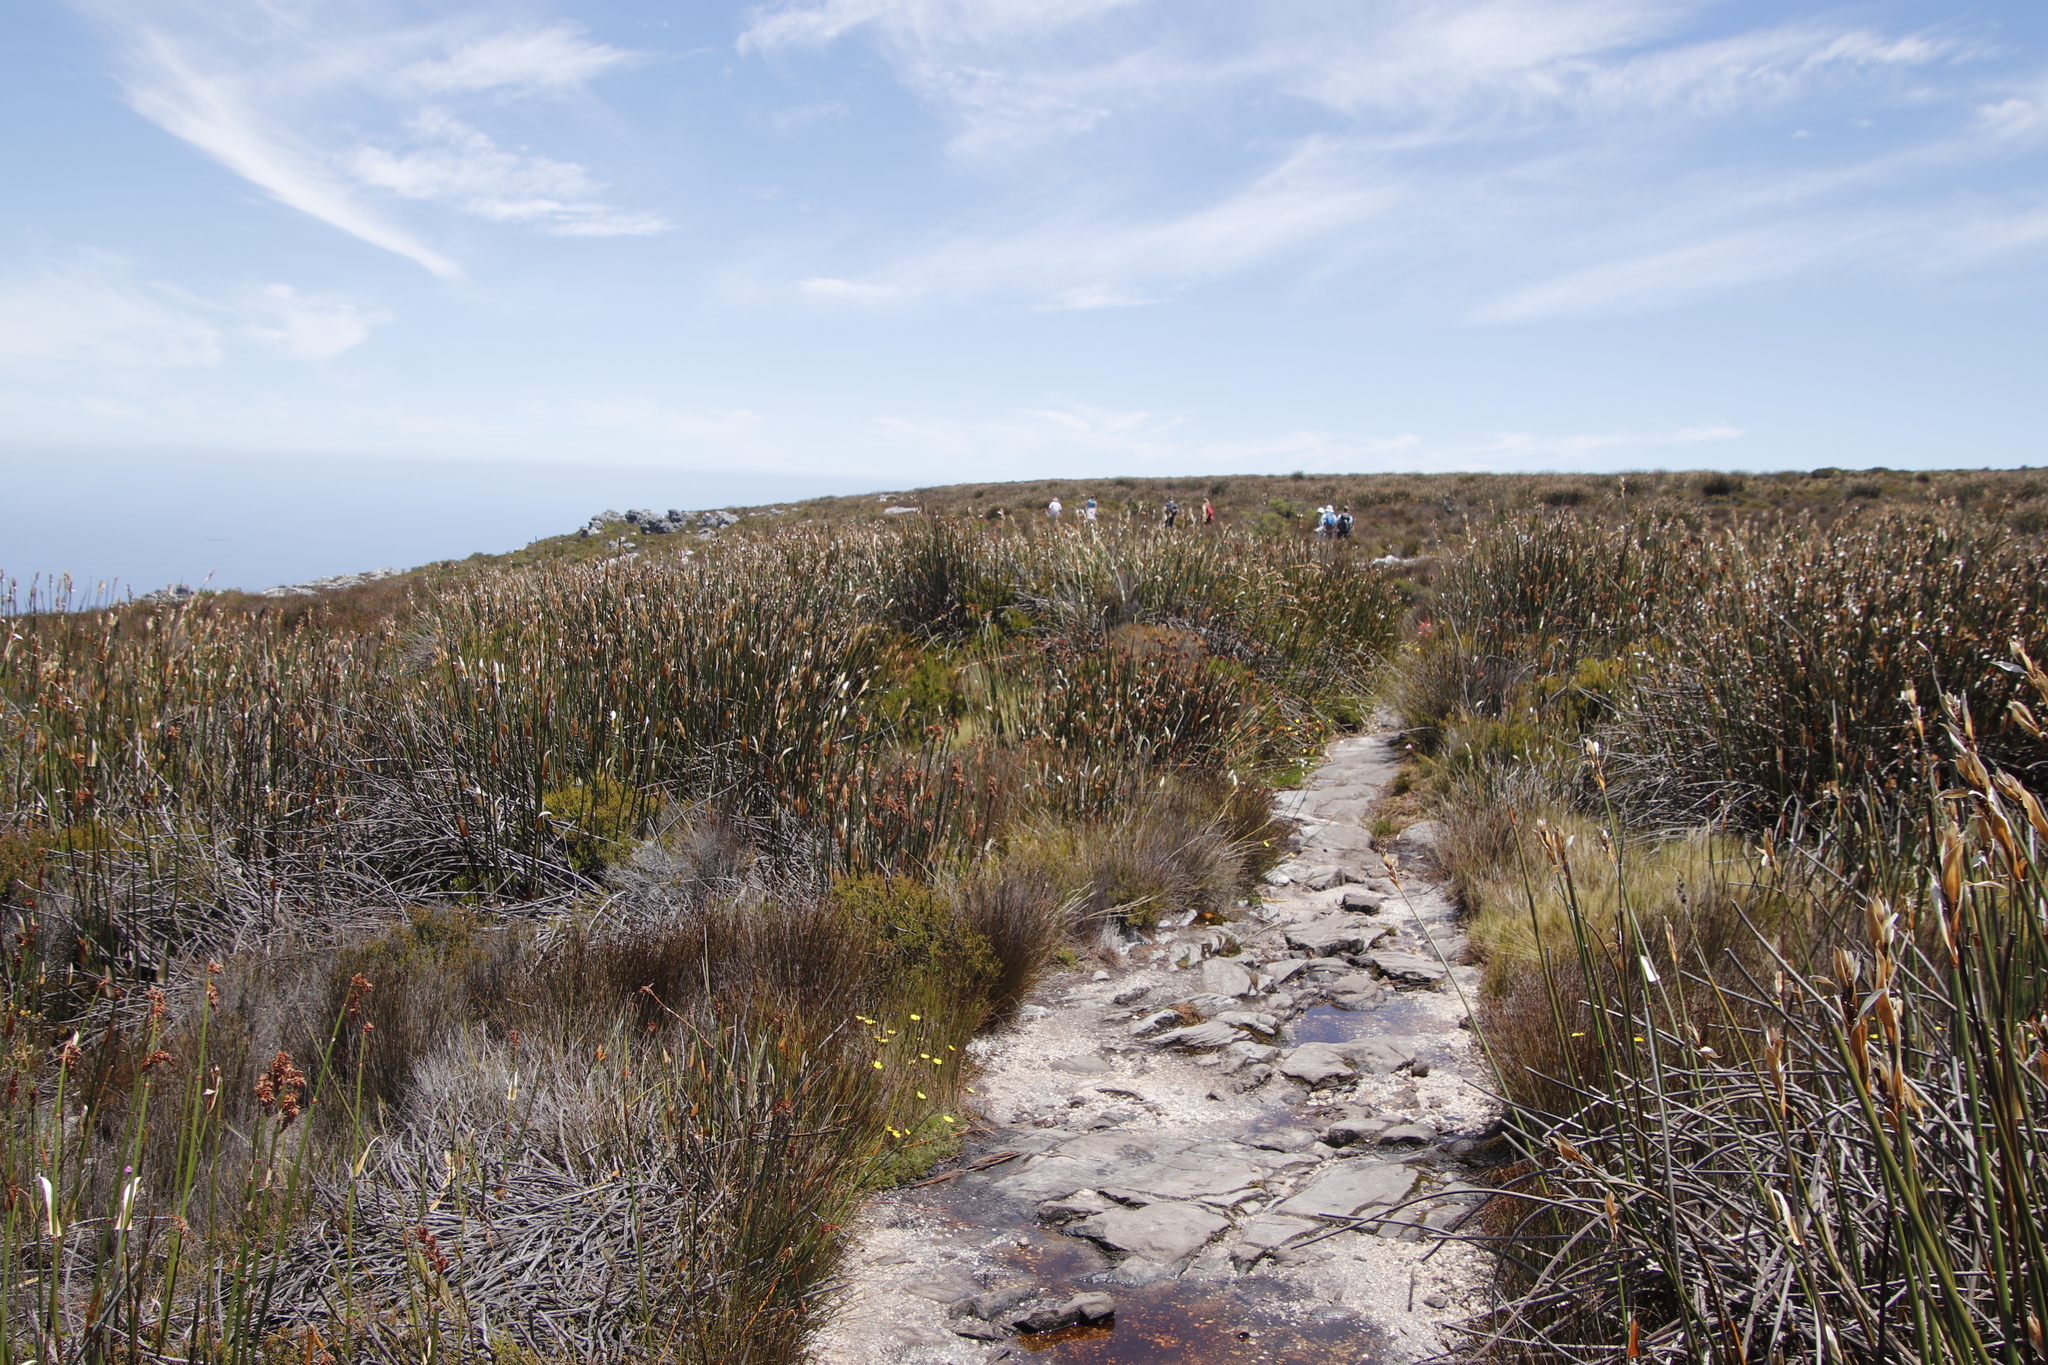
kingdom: Plantae
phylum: Tracheophyta
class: Liliopsida
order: Poales
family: Restionaceae
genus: Elegia
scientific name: Elegia mucronata
